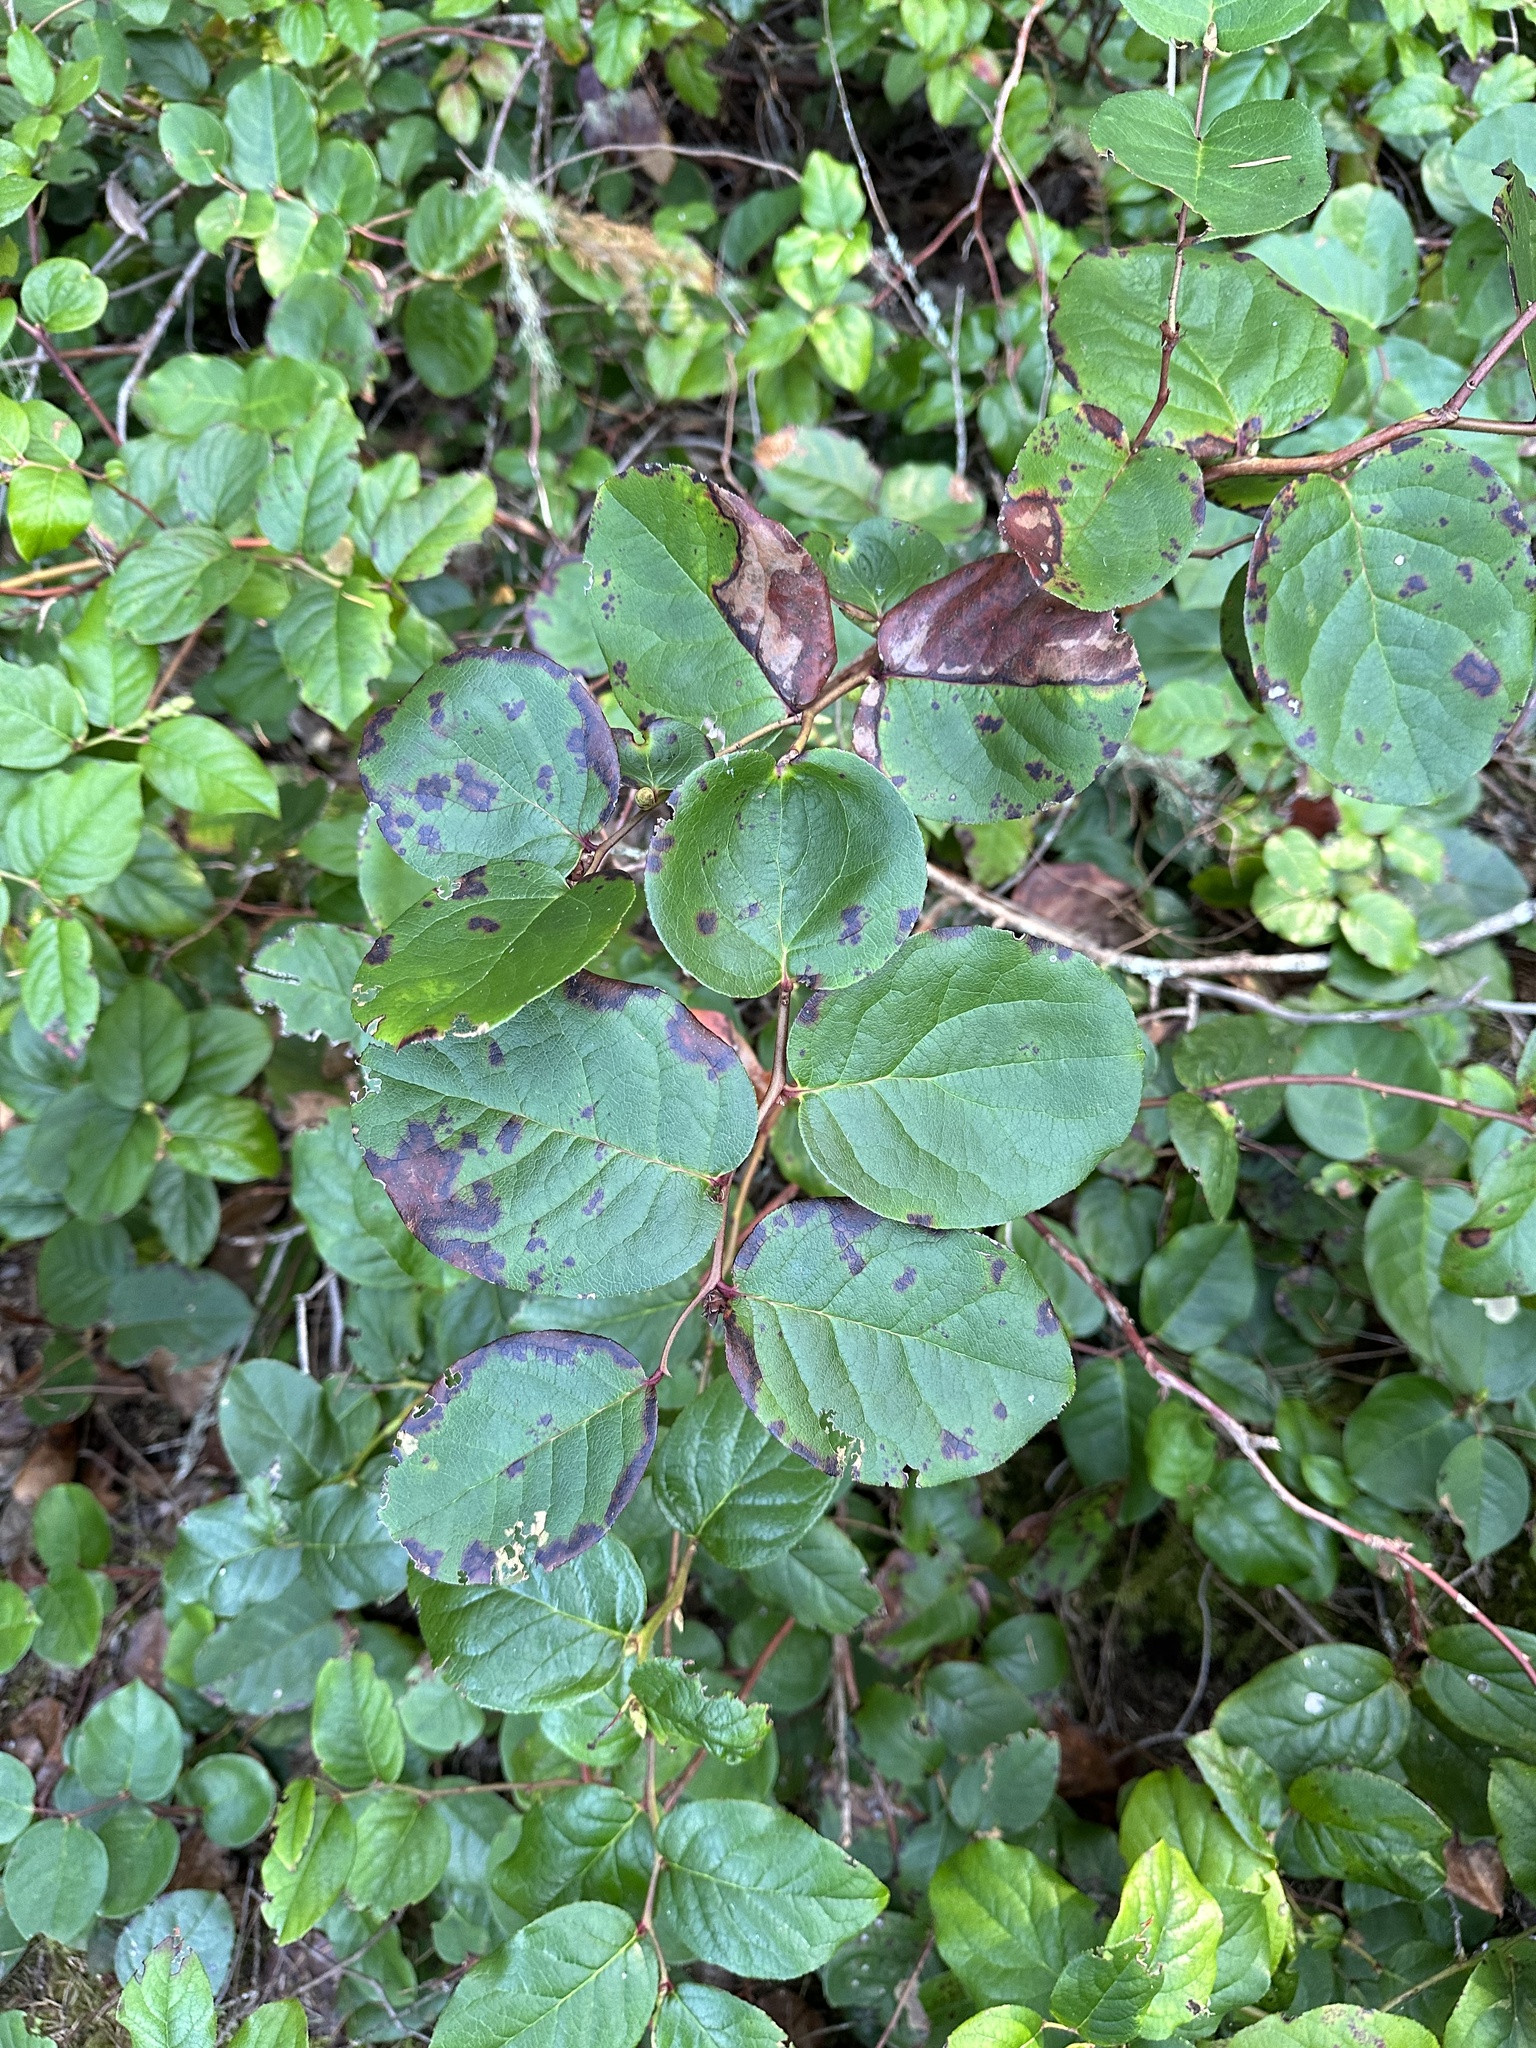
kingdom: Plantae
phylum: Tracheophyta
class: Magnoliopsida
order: Ericales
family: Ericaceae
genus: Gaultheria
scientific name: Gaultheria shallon
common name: Shallon
